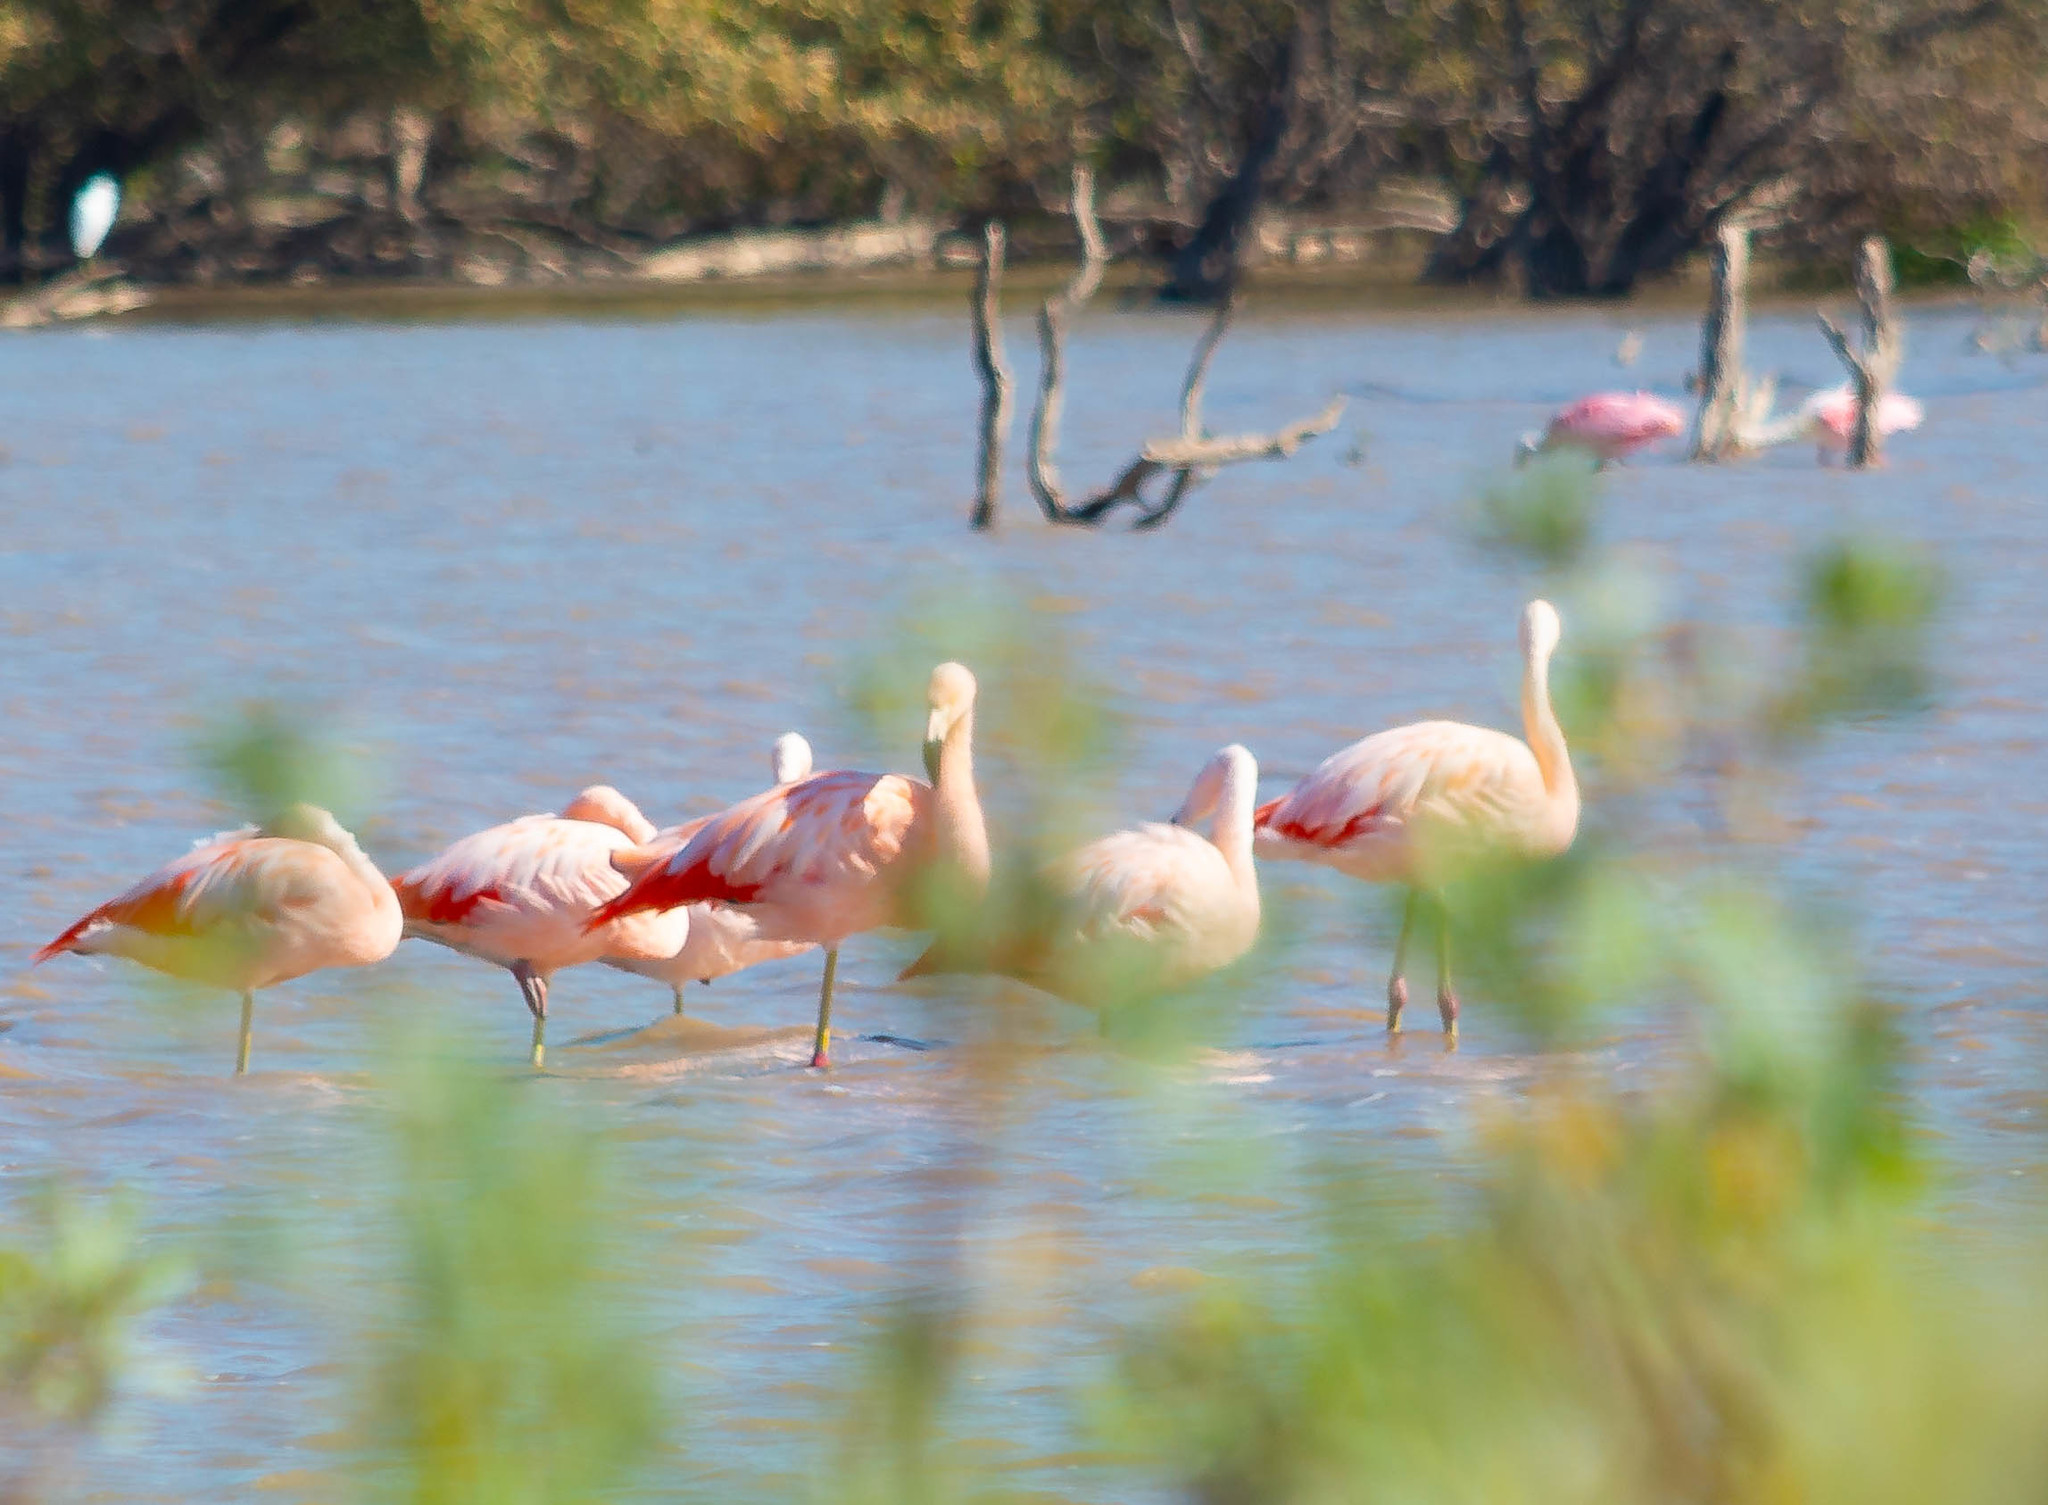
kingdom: Animalia
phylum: Chordata
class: Aves
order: Phoenicopteriformes
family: Phoenicopteridae
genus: Phoenicopterus
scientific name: Phoenicopterus chilensis
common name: Chilean flamingo
